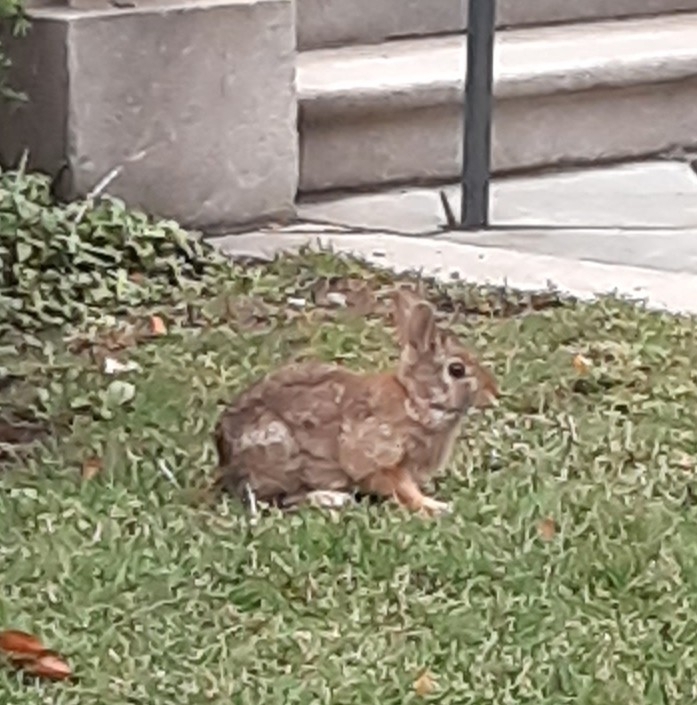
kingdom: Animalia
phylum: Chordata
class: Mammalia
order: Lagomorpha
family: Leporidae
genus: Sylvilagus
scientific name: Sylvilagus floridanus
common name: Eastern cottontail
